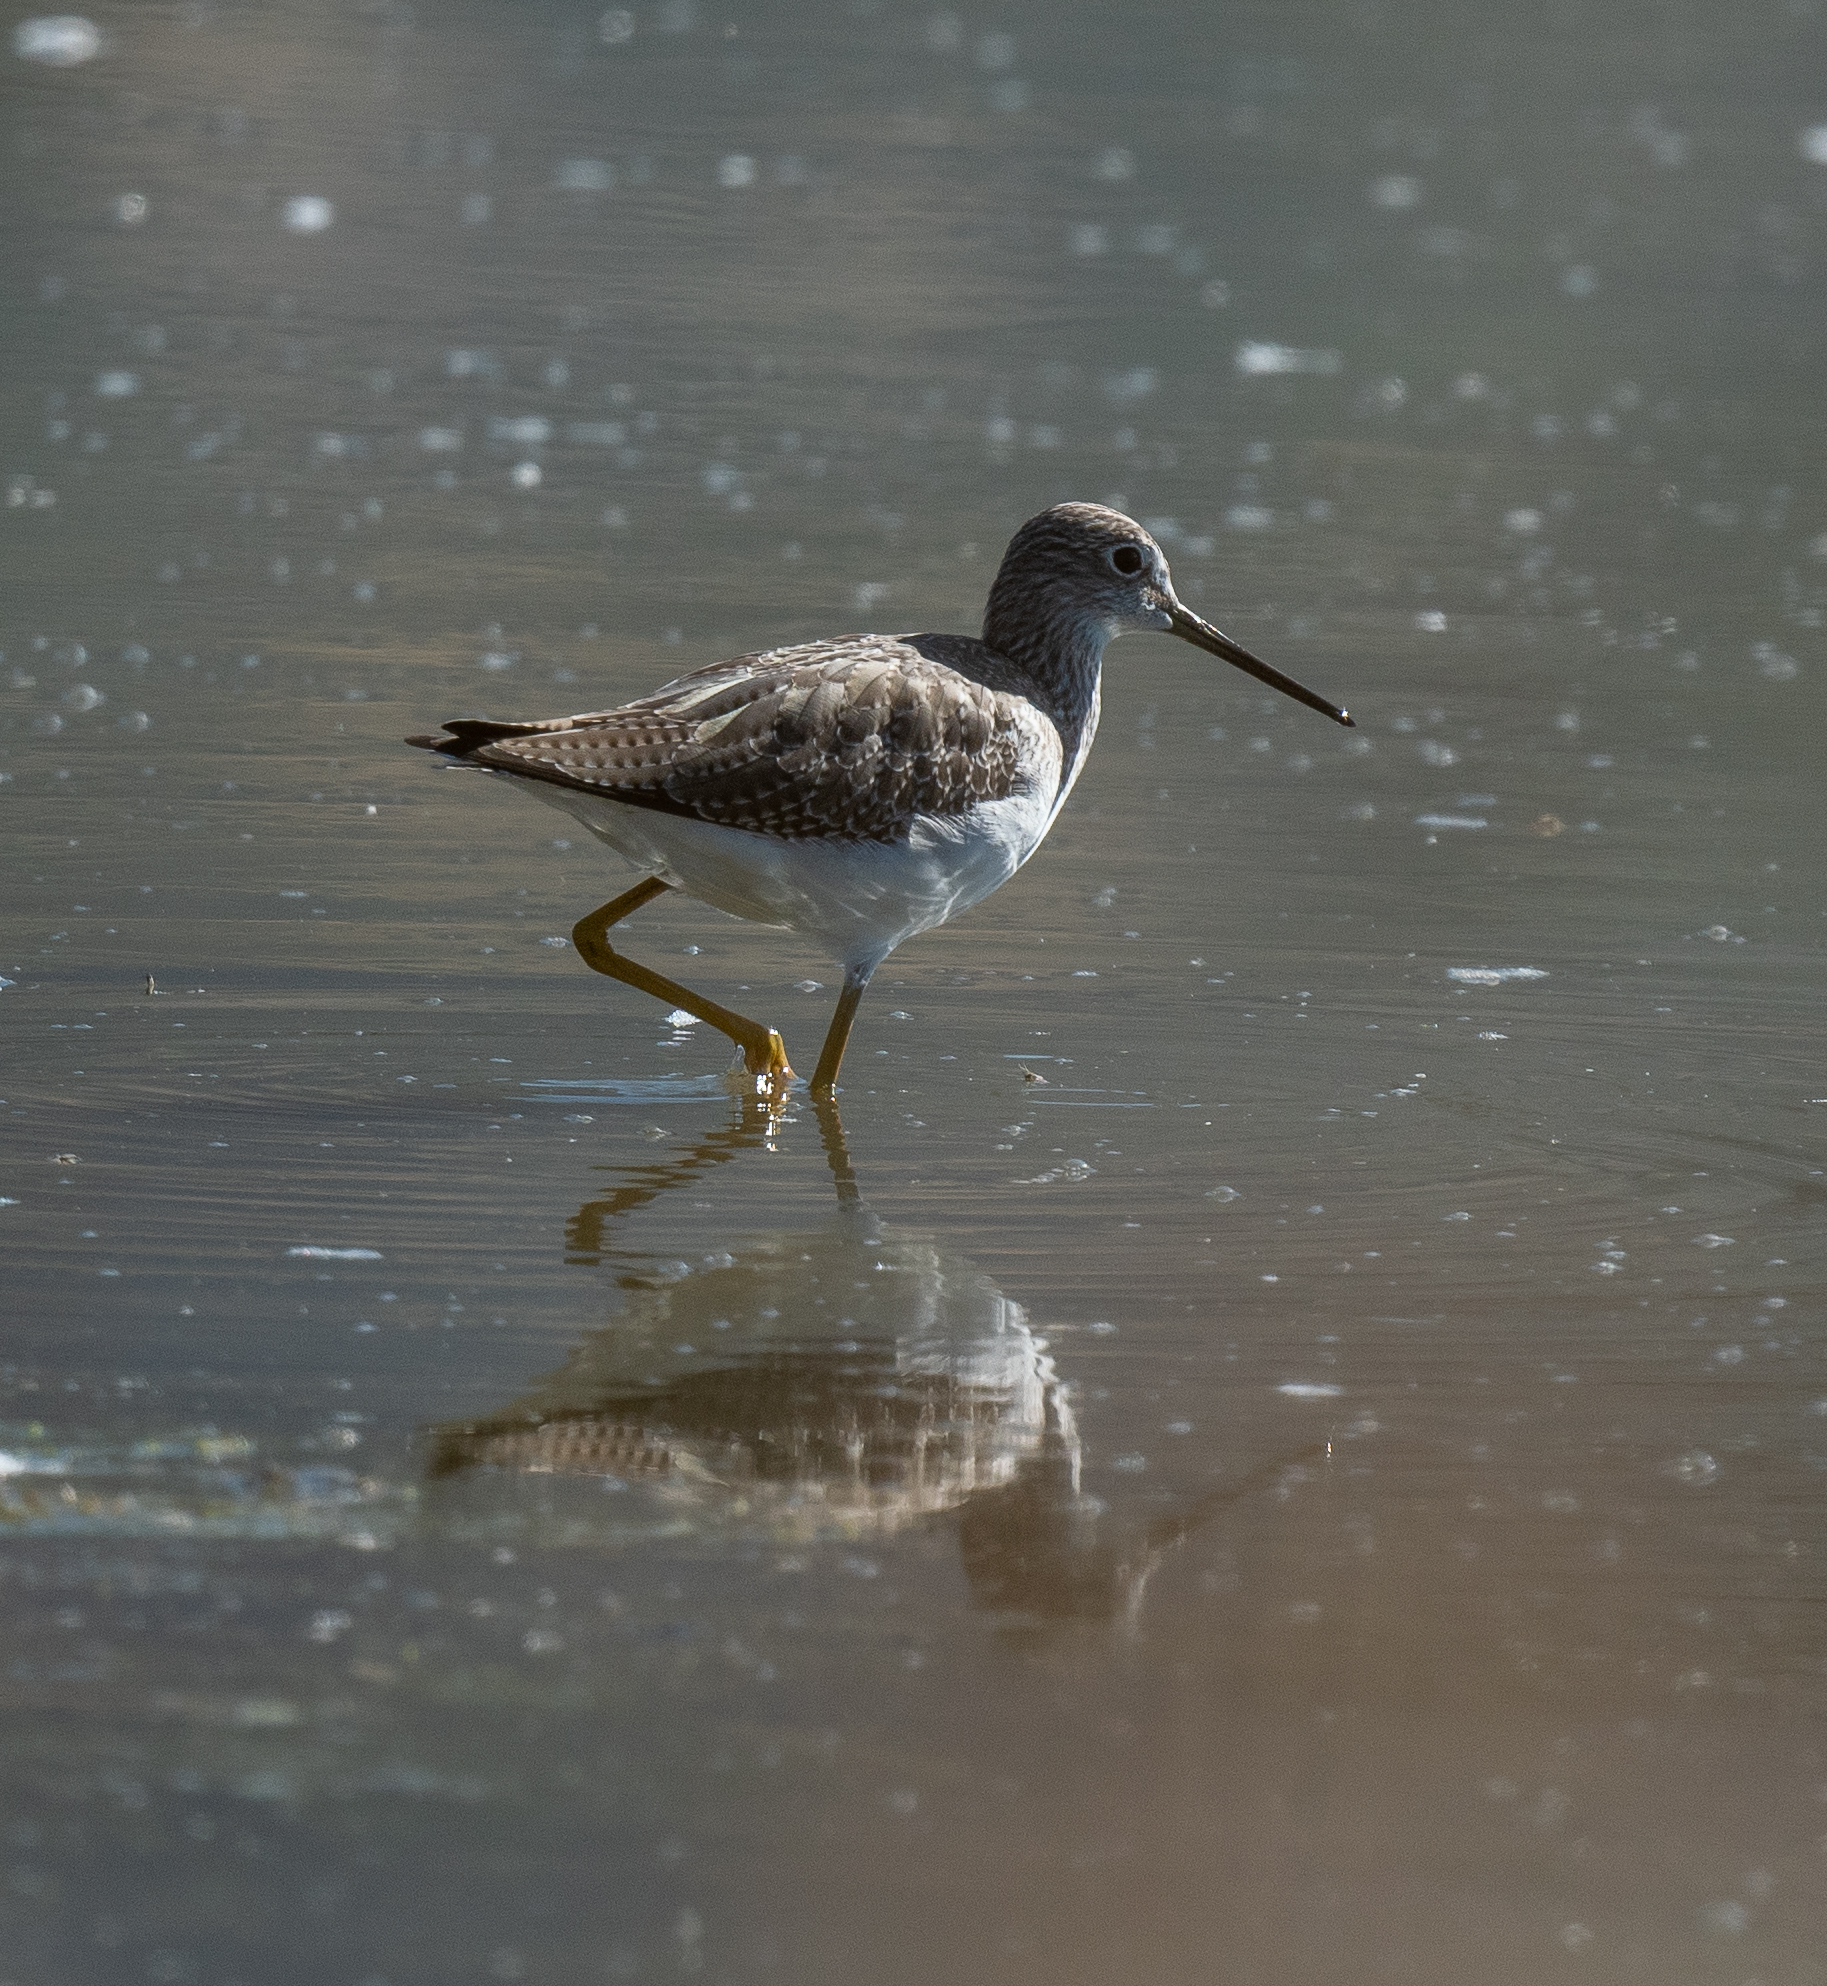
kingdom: Animalia
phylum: Chordata
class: Aves
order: Charadriiformes
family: Scolopacidae
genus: Tringa
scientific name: Tringa melanoleuca
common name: Greater yellowlegs
